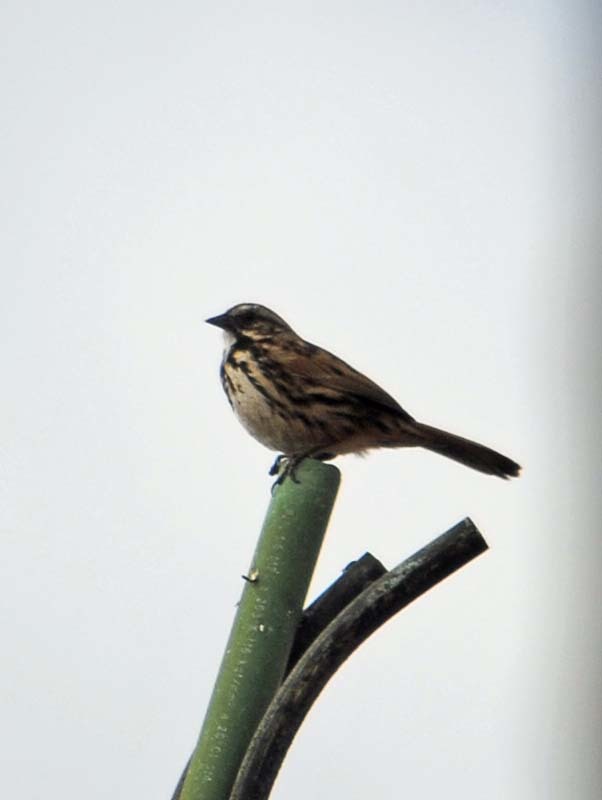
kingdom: Animalia
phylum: Chordata
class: Aves
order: Passeriformes
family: Passerellidae
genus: Melospiza
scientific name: Melospiza melodia
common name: Song sparrow
